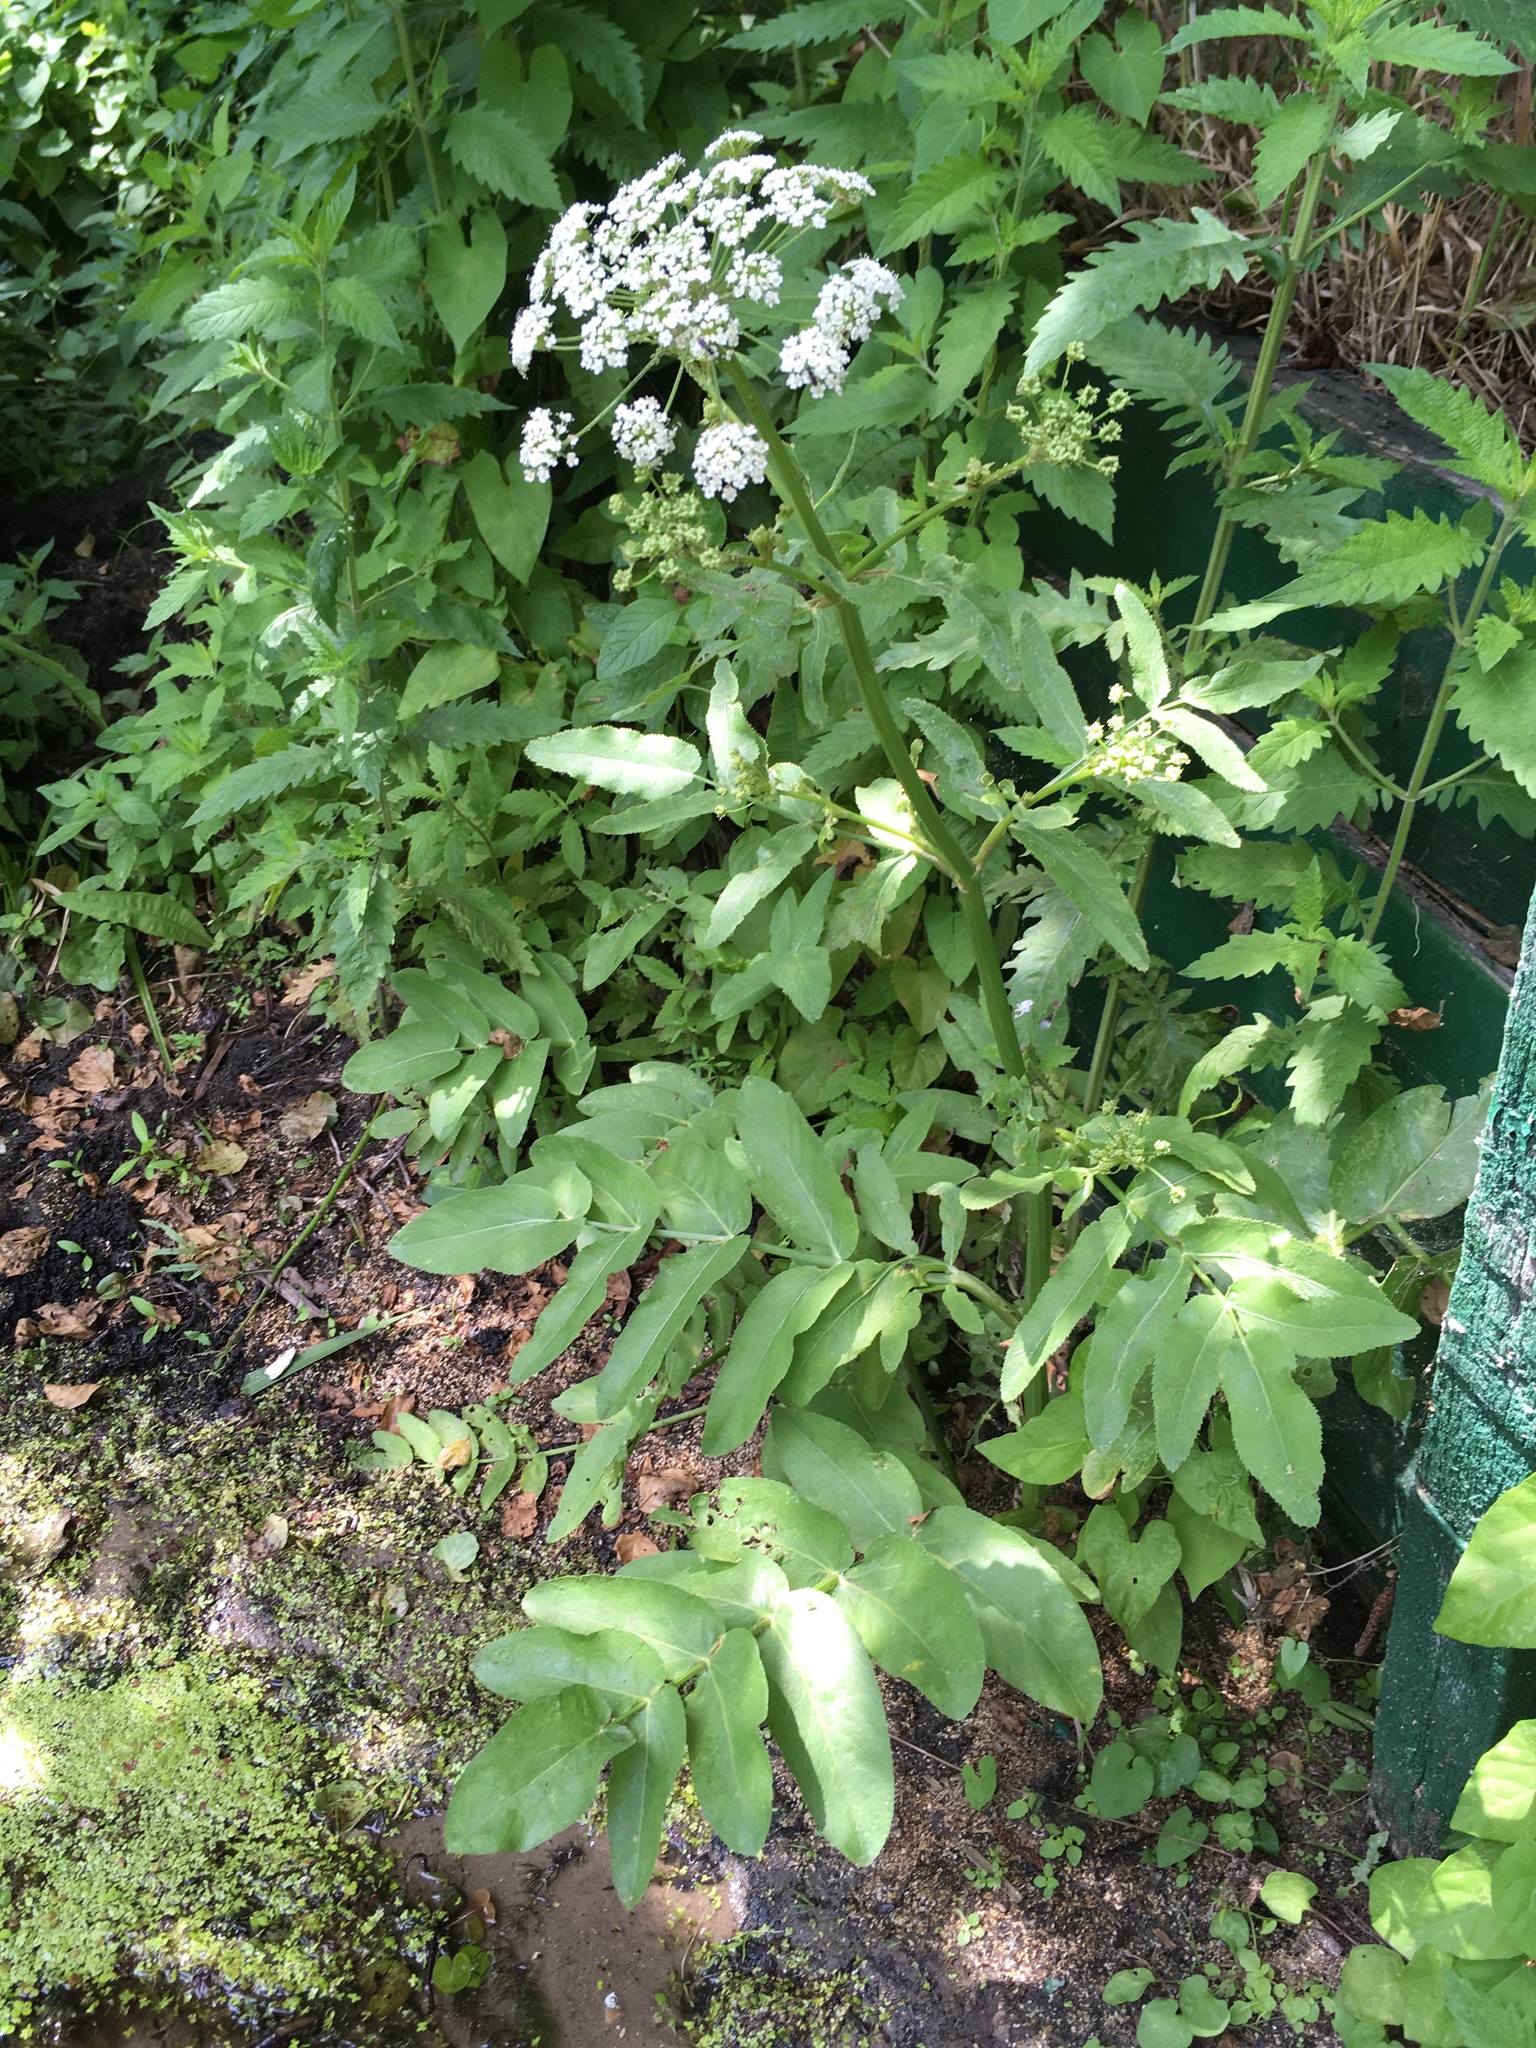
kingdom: Plantae
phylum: Tracheophyta
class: Magnoliopsida
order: Apiales
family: Apiaceae
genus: Sium
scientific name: Sium latifolium
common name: Greater water-parsnip
